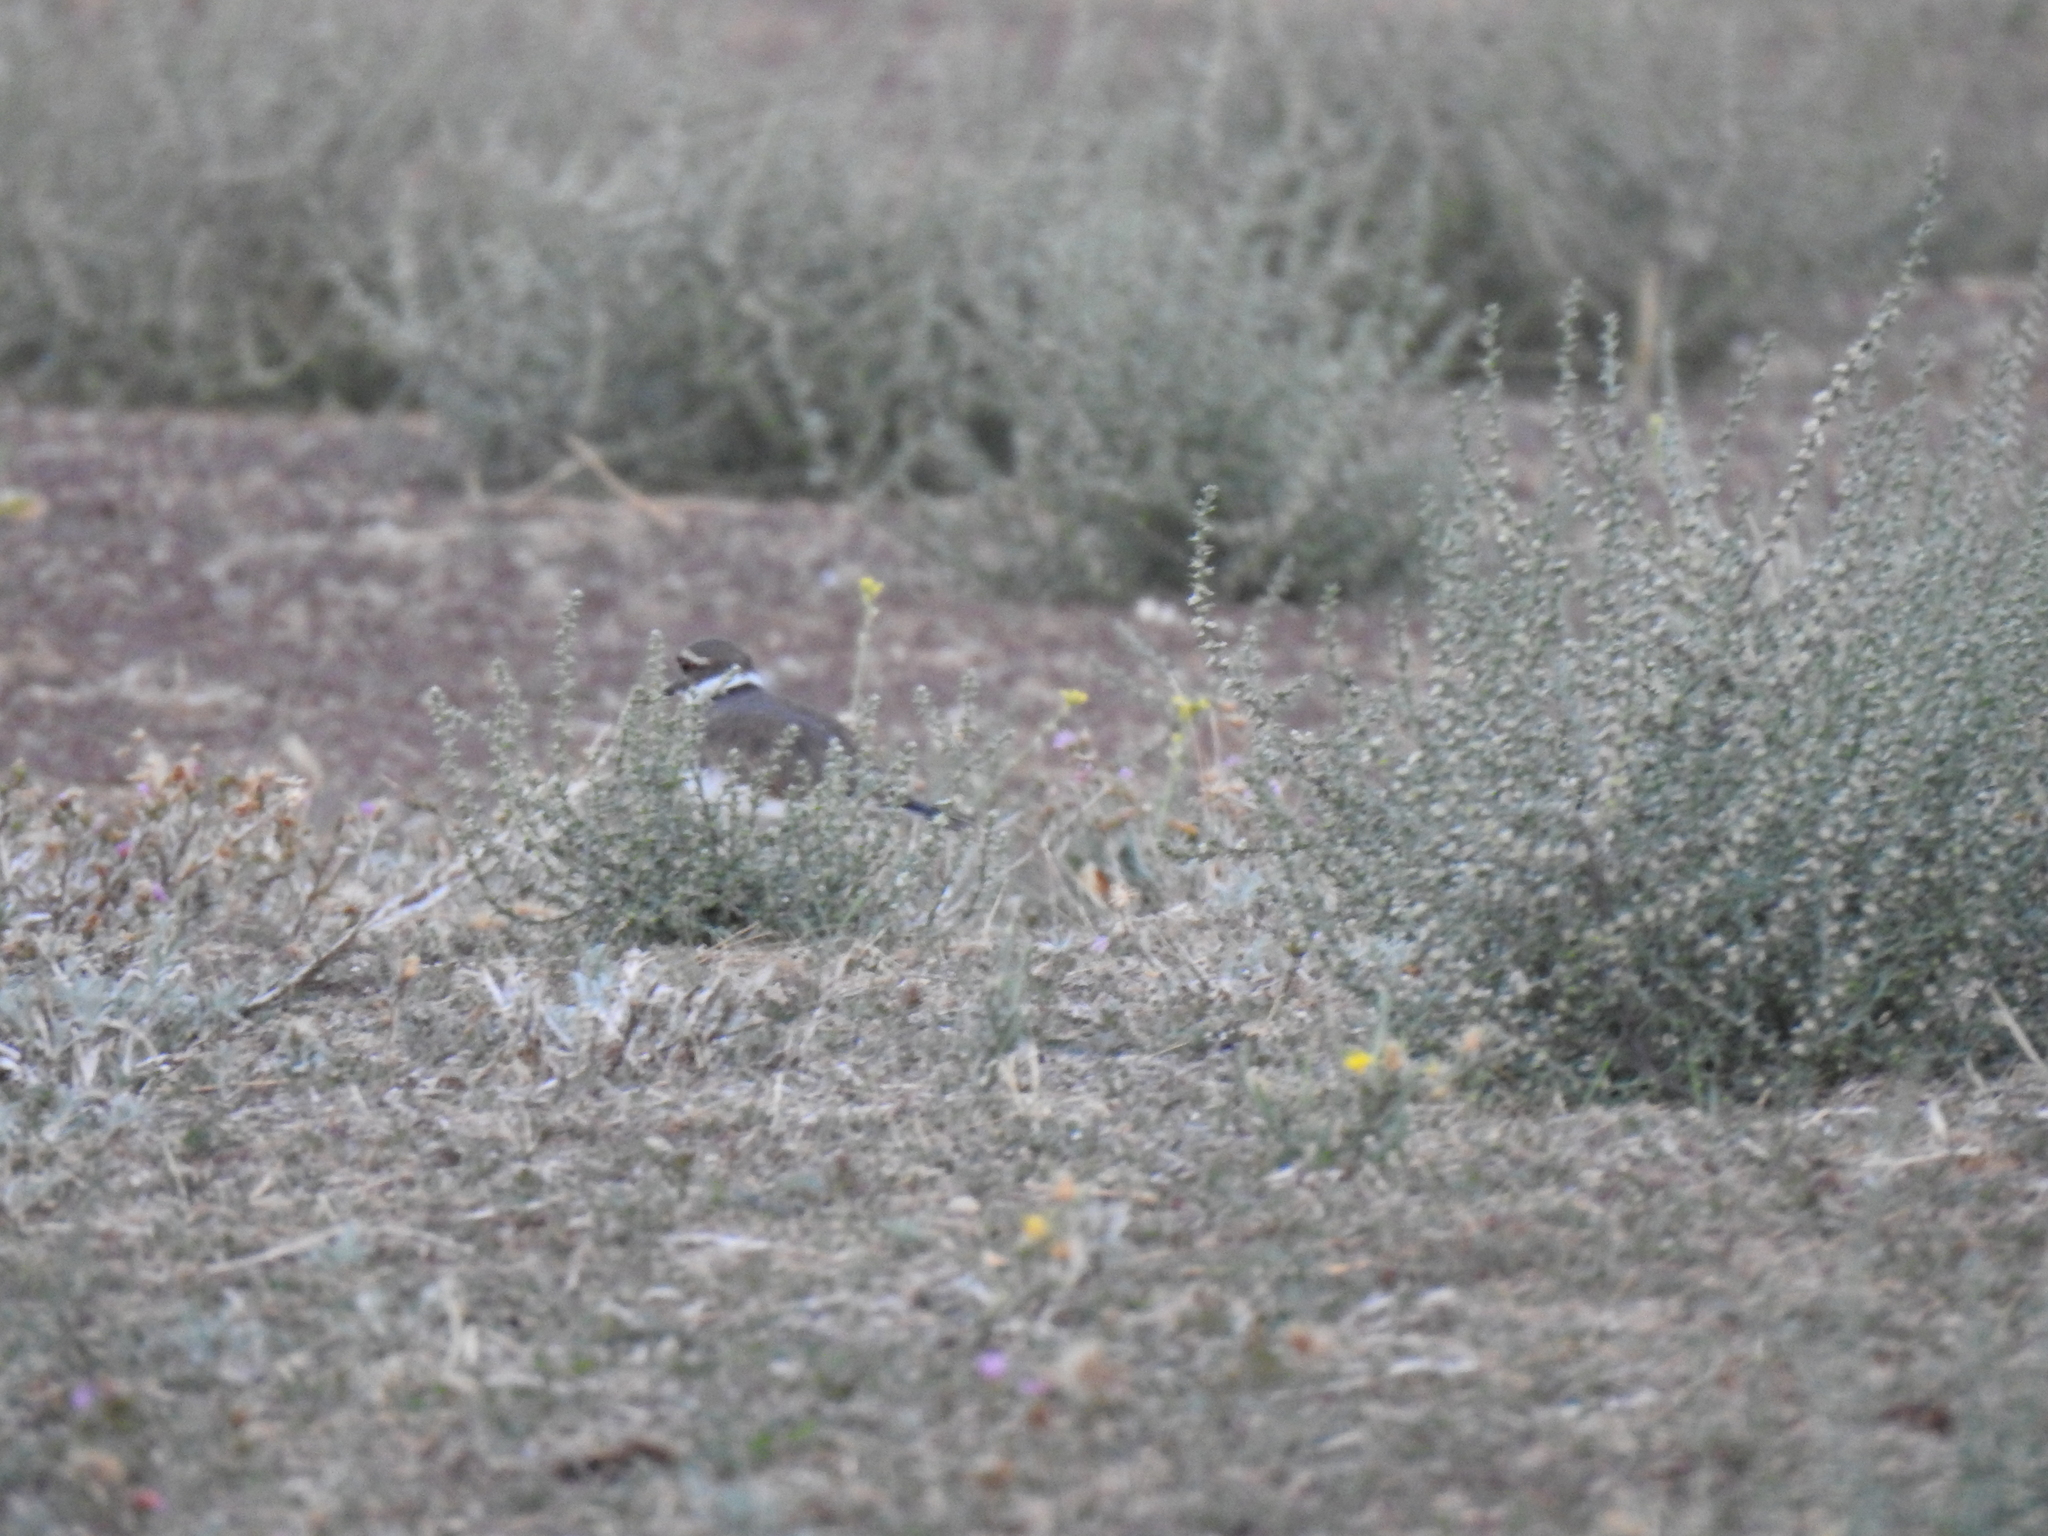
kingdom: Animalia
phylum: Chordata
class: Aves
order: Charadriiformes
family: Charadriidae
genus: Charadrius
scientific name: Charadrius vociferus
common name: Killdeer
